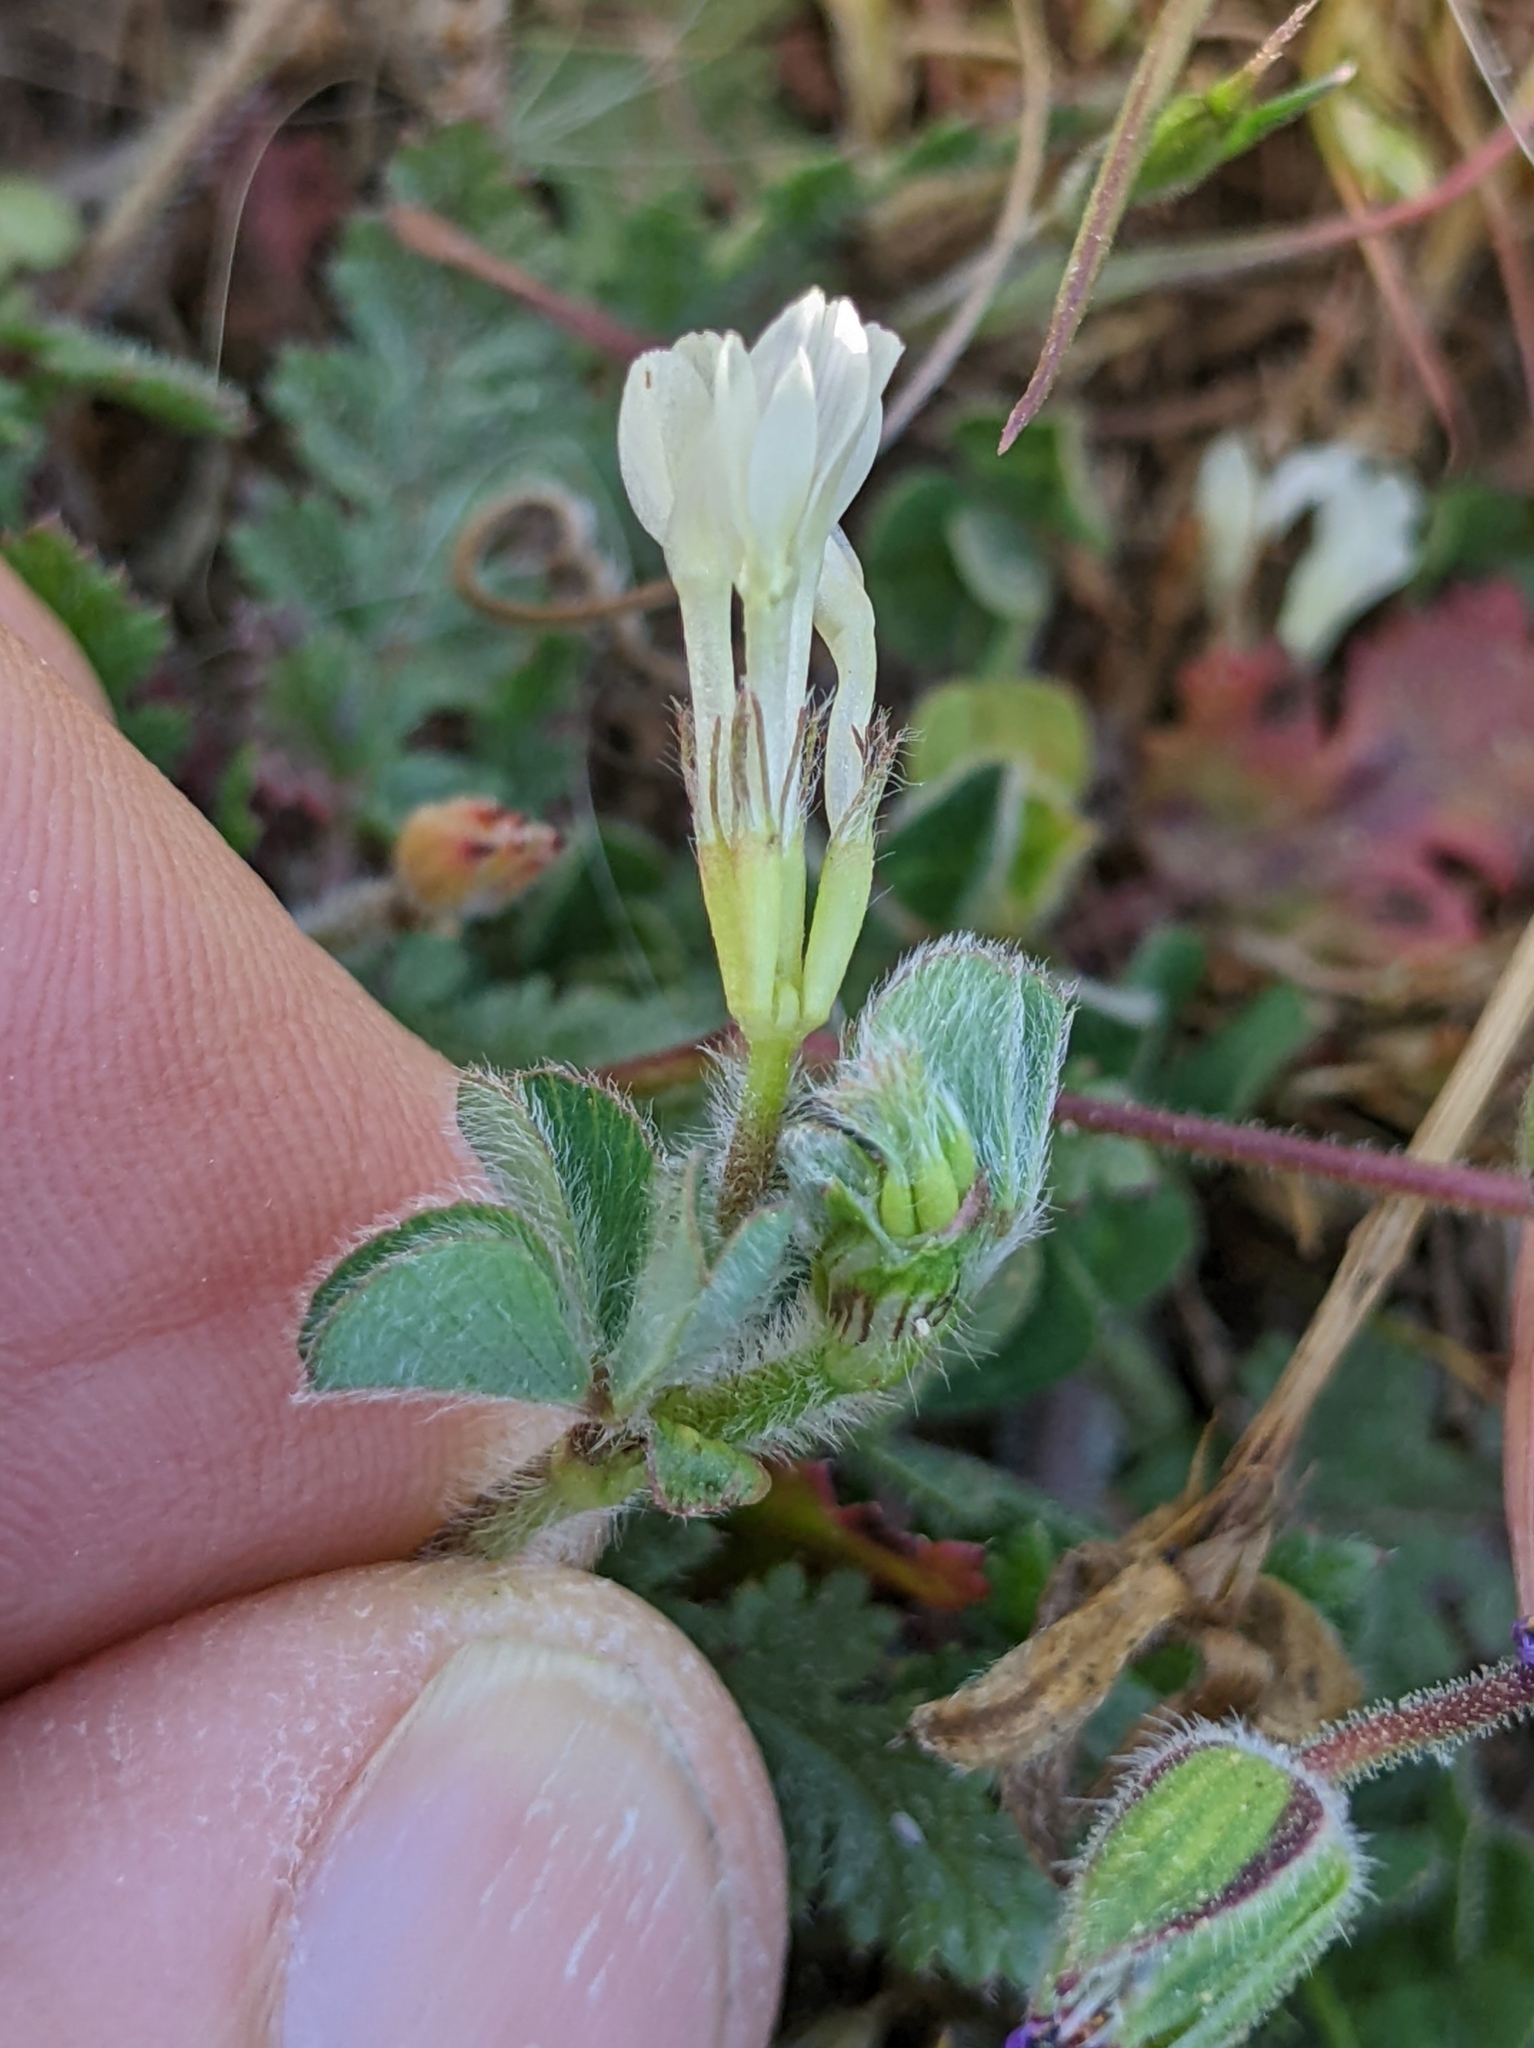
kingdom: Plantae
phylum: Tracheophyta
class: Magnoliopsida
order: Fabales
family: Fabaceae
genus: Trifolium
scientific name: Trifolium subterraneum
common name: Subterranean clover
